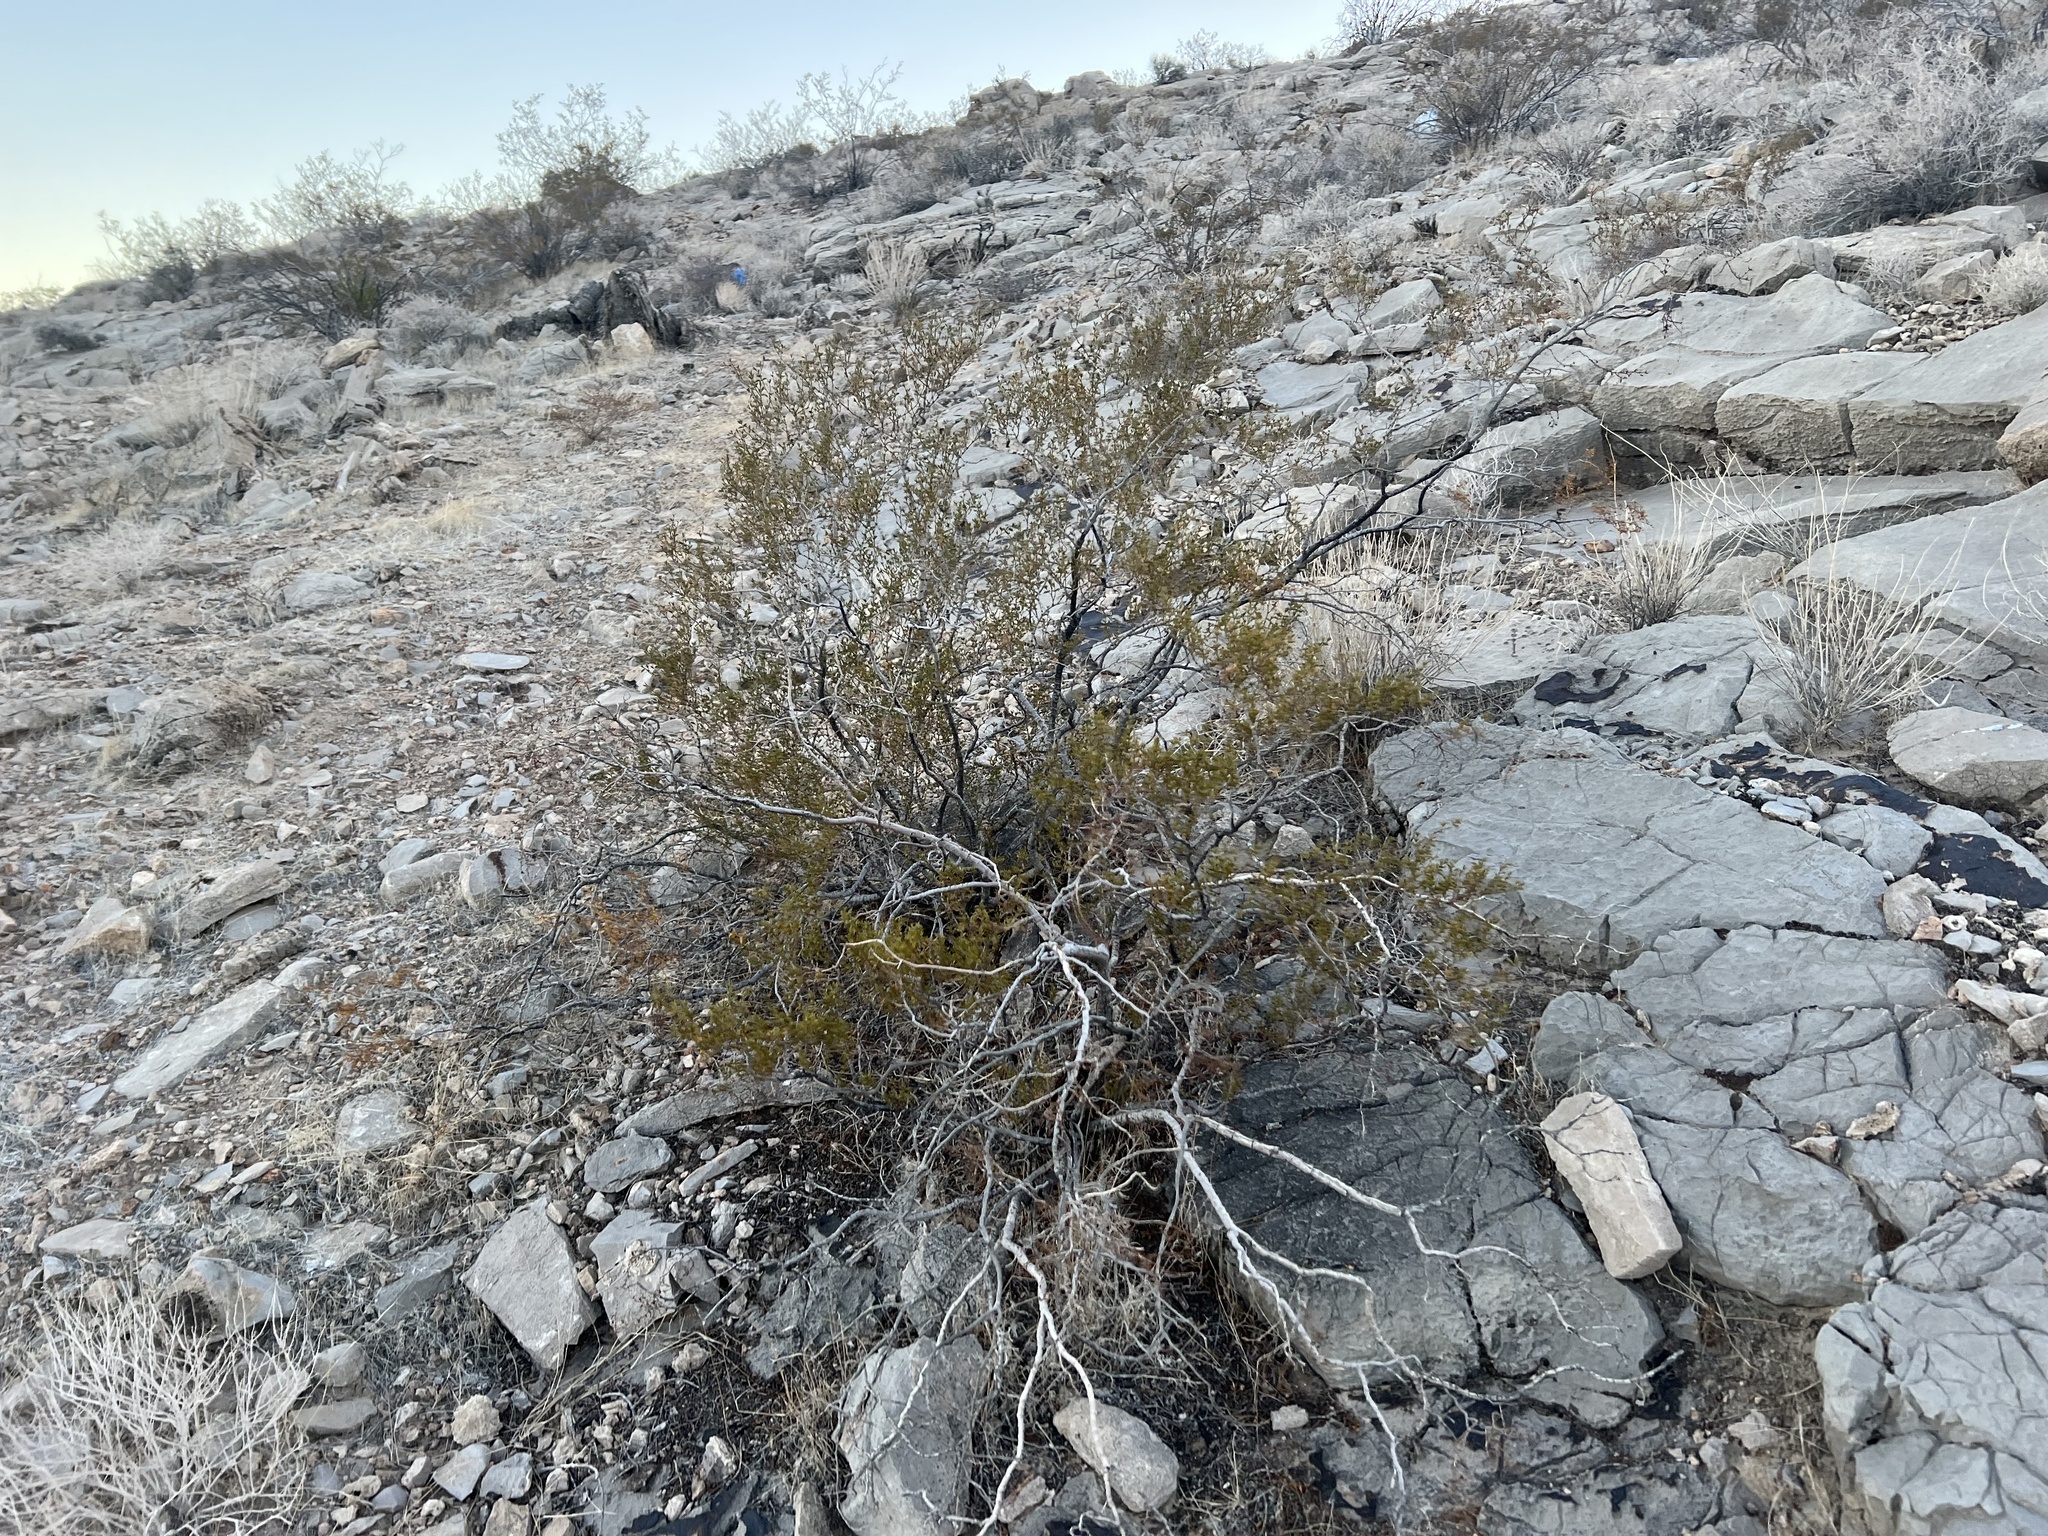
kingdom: Plantae
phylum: Tracheophyta
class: Magnoliopsida
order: Zygophyllales
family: Zygophyllaceae
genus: Larrea
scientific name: Larrea tridentata
